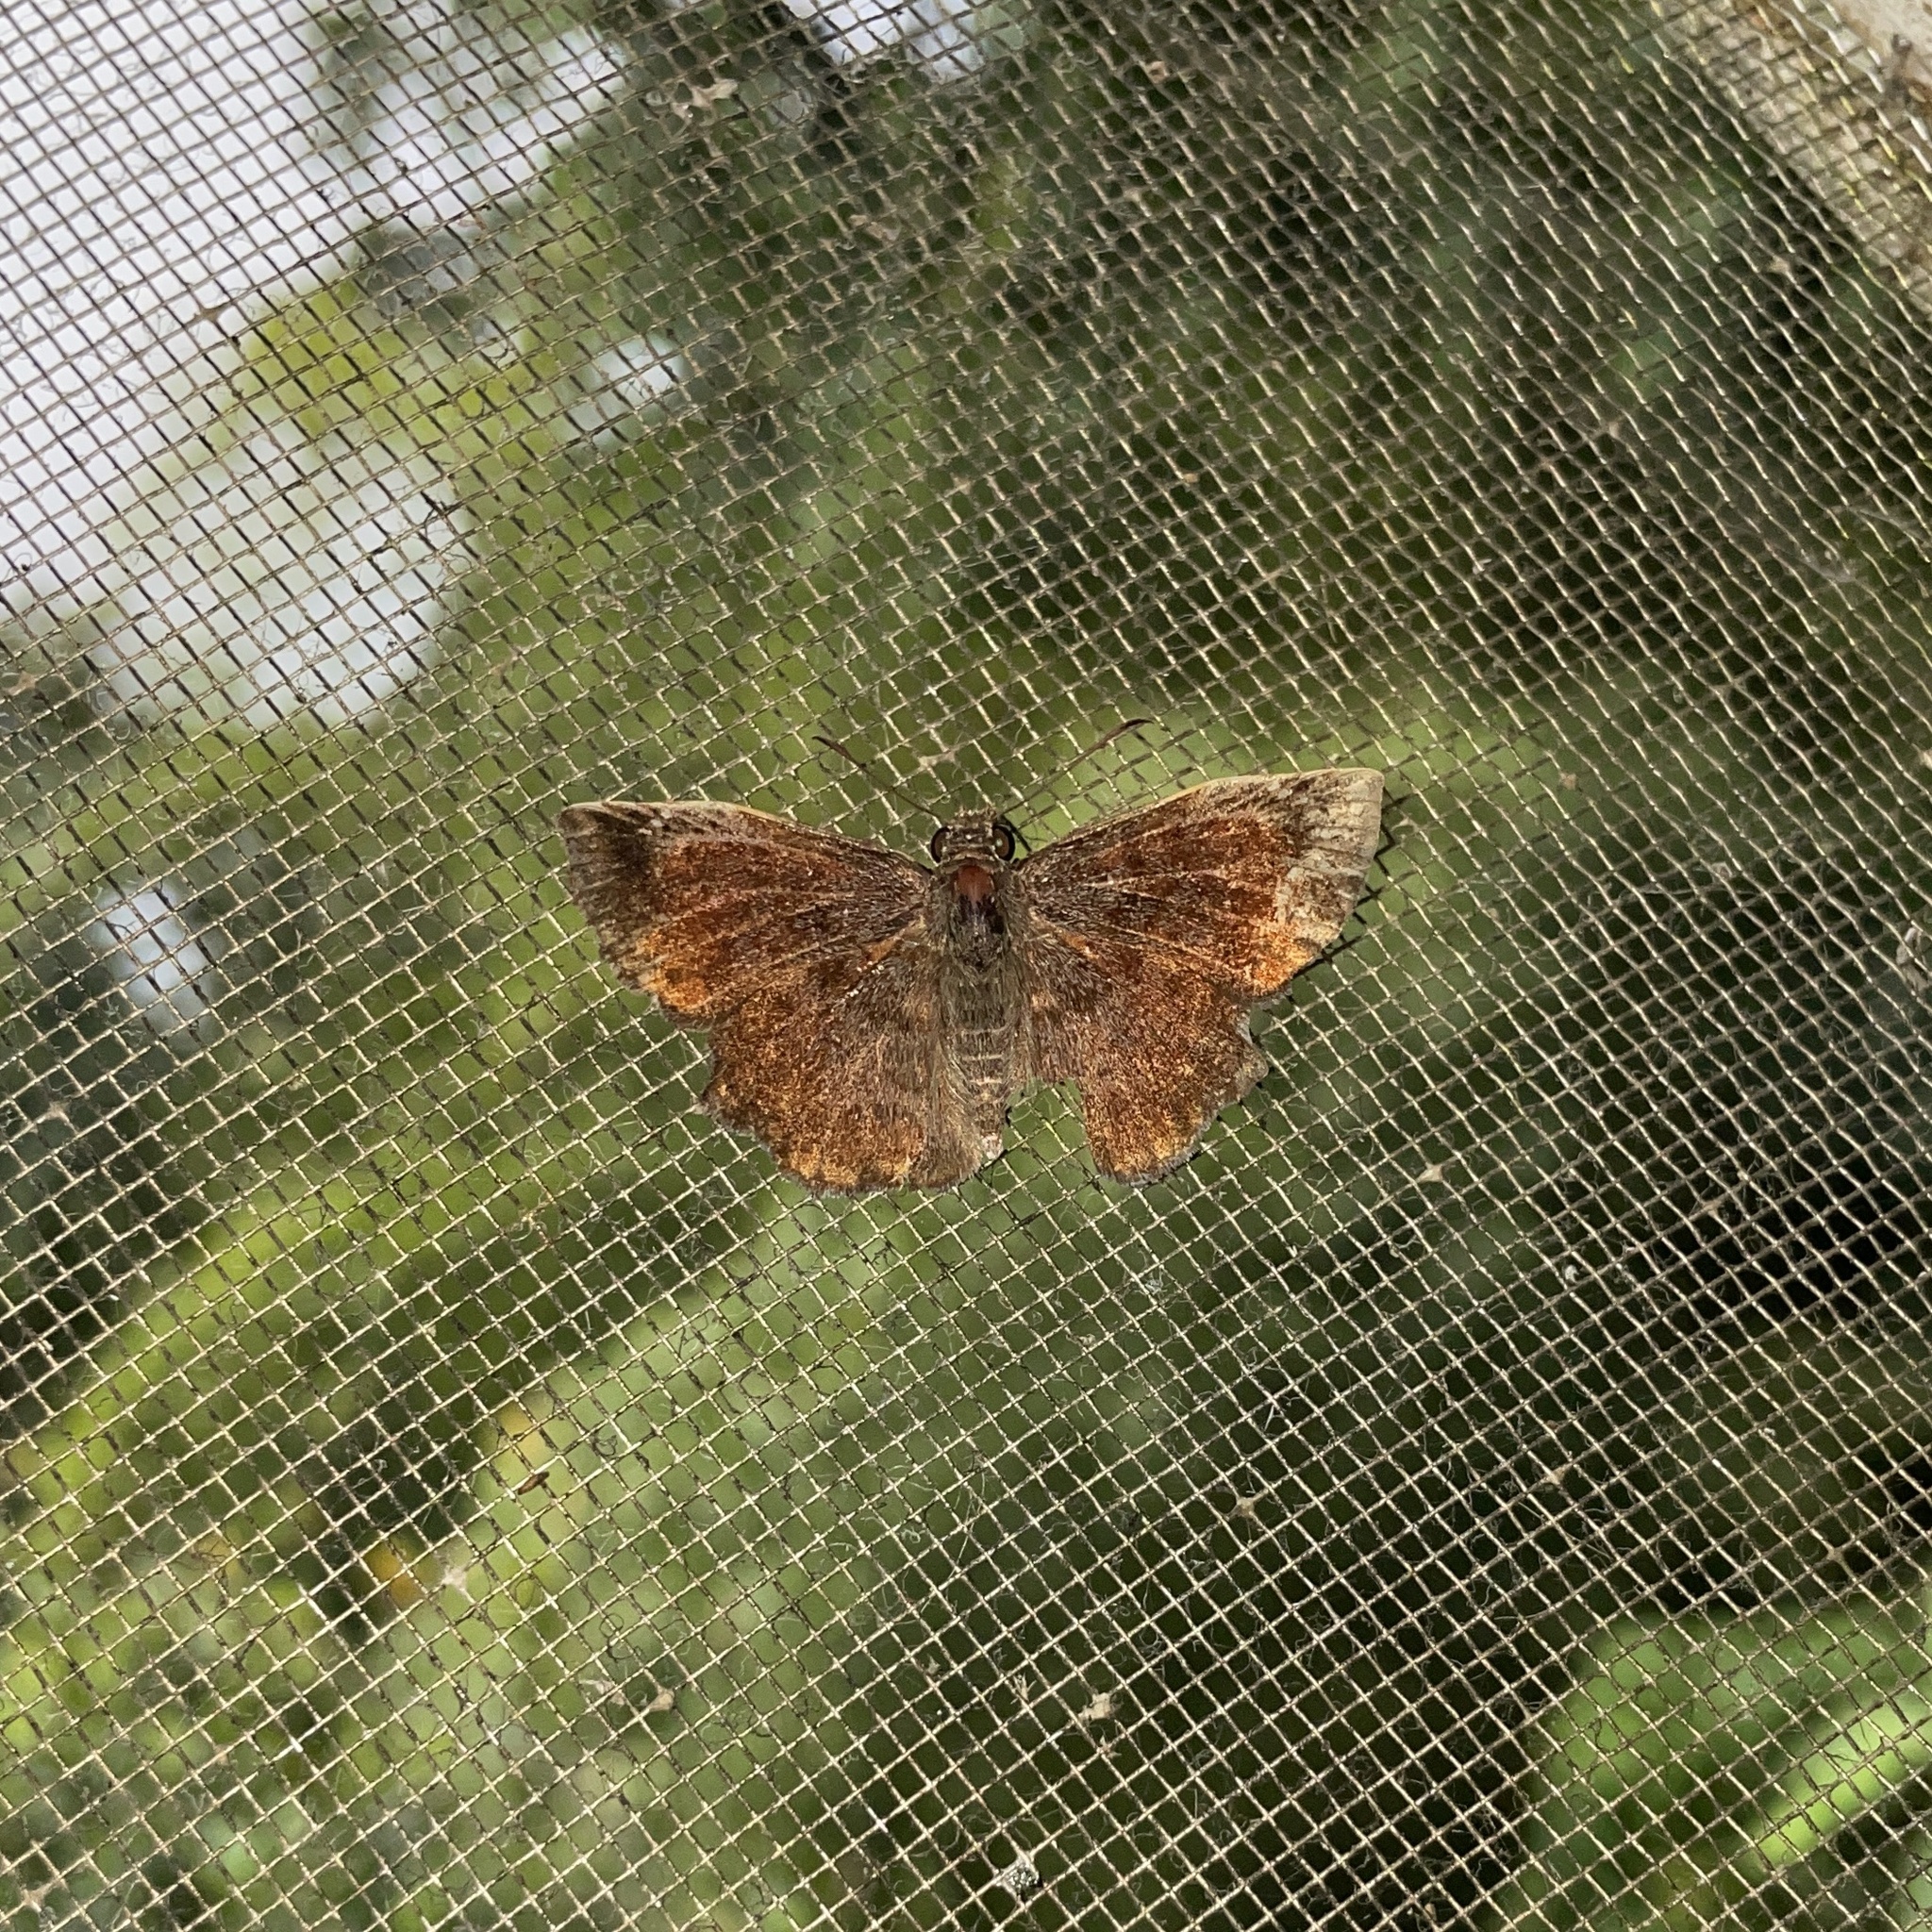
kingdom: Animalia
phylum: Arthropoda
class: Insecta
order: Lepidoptera
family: Hesperiidae
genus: Antigonus
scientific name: Antigonus erosus
